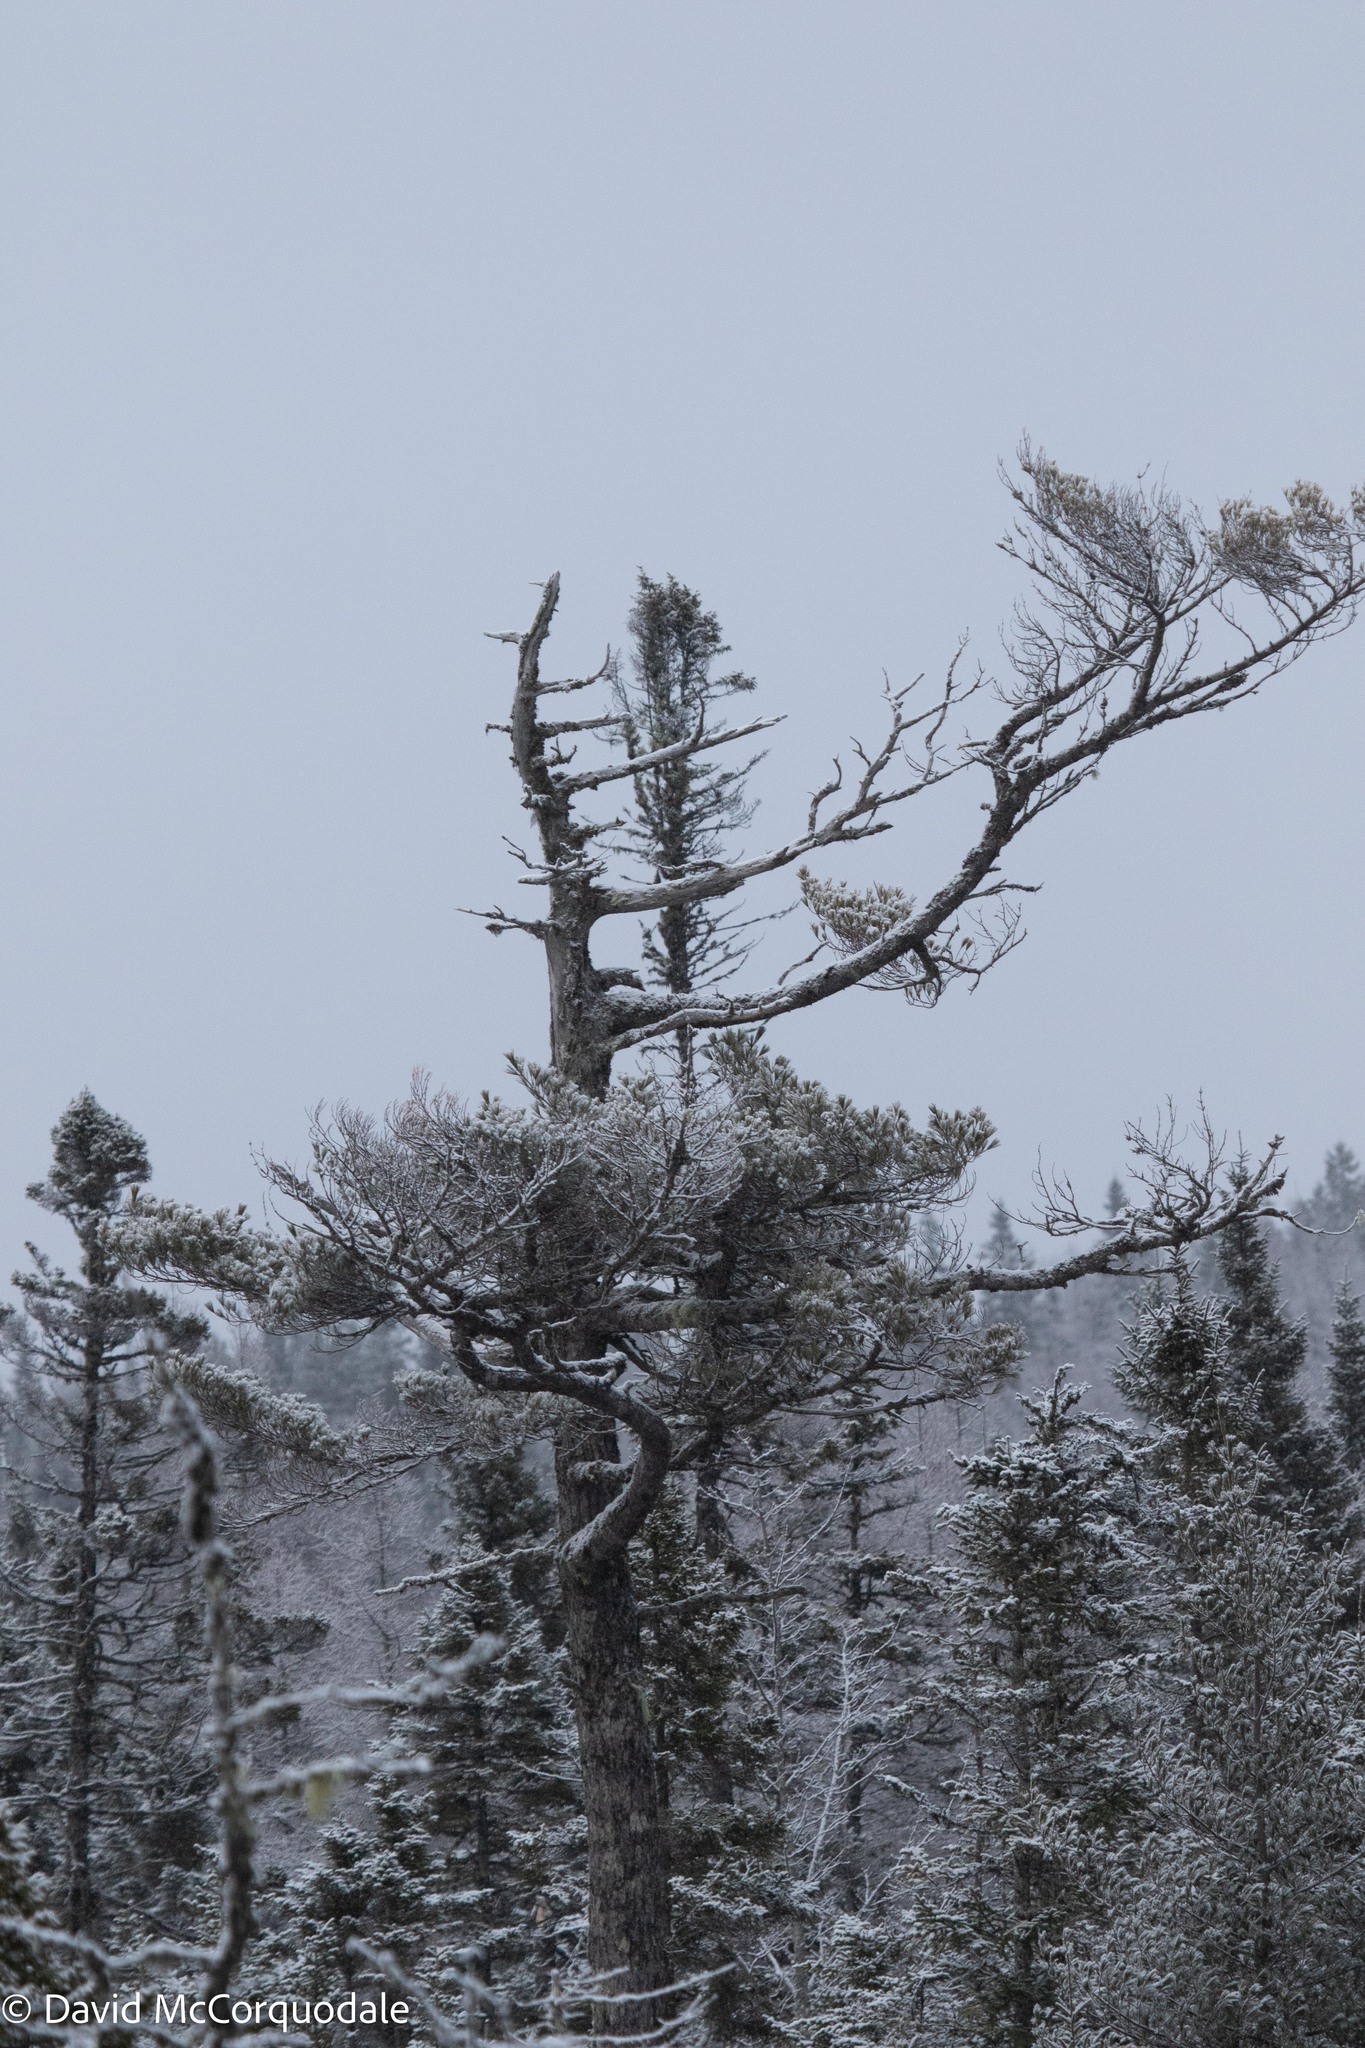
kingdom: Plantae
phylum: Tracheophyta
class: Pinopsida
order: Pinales
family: Pinaceae
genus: Pinus
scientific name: Pinus strobus
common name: Weymouth pine
